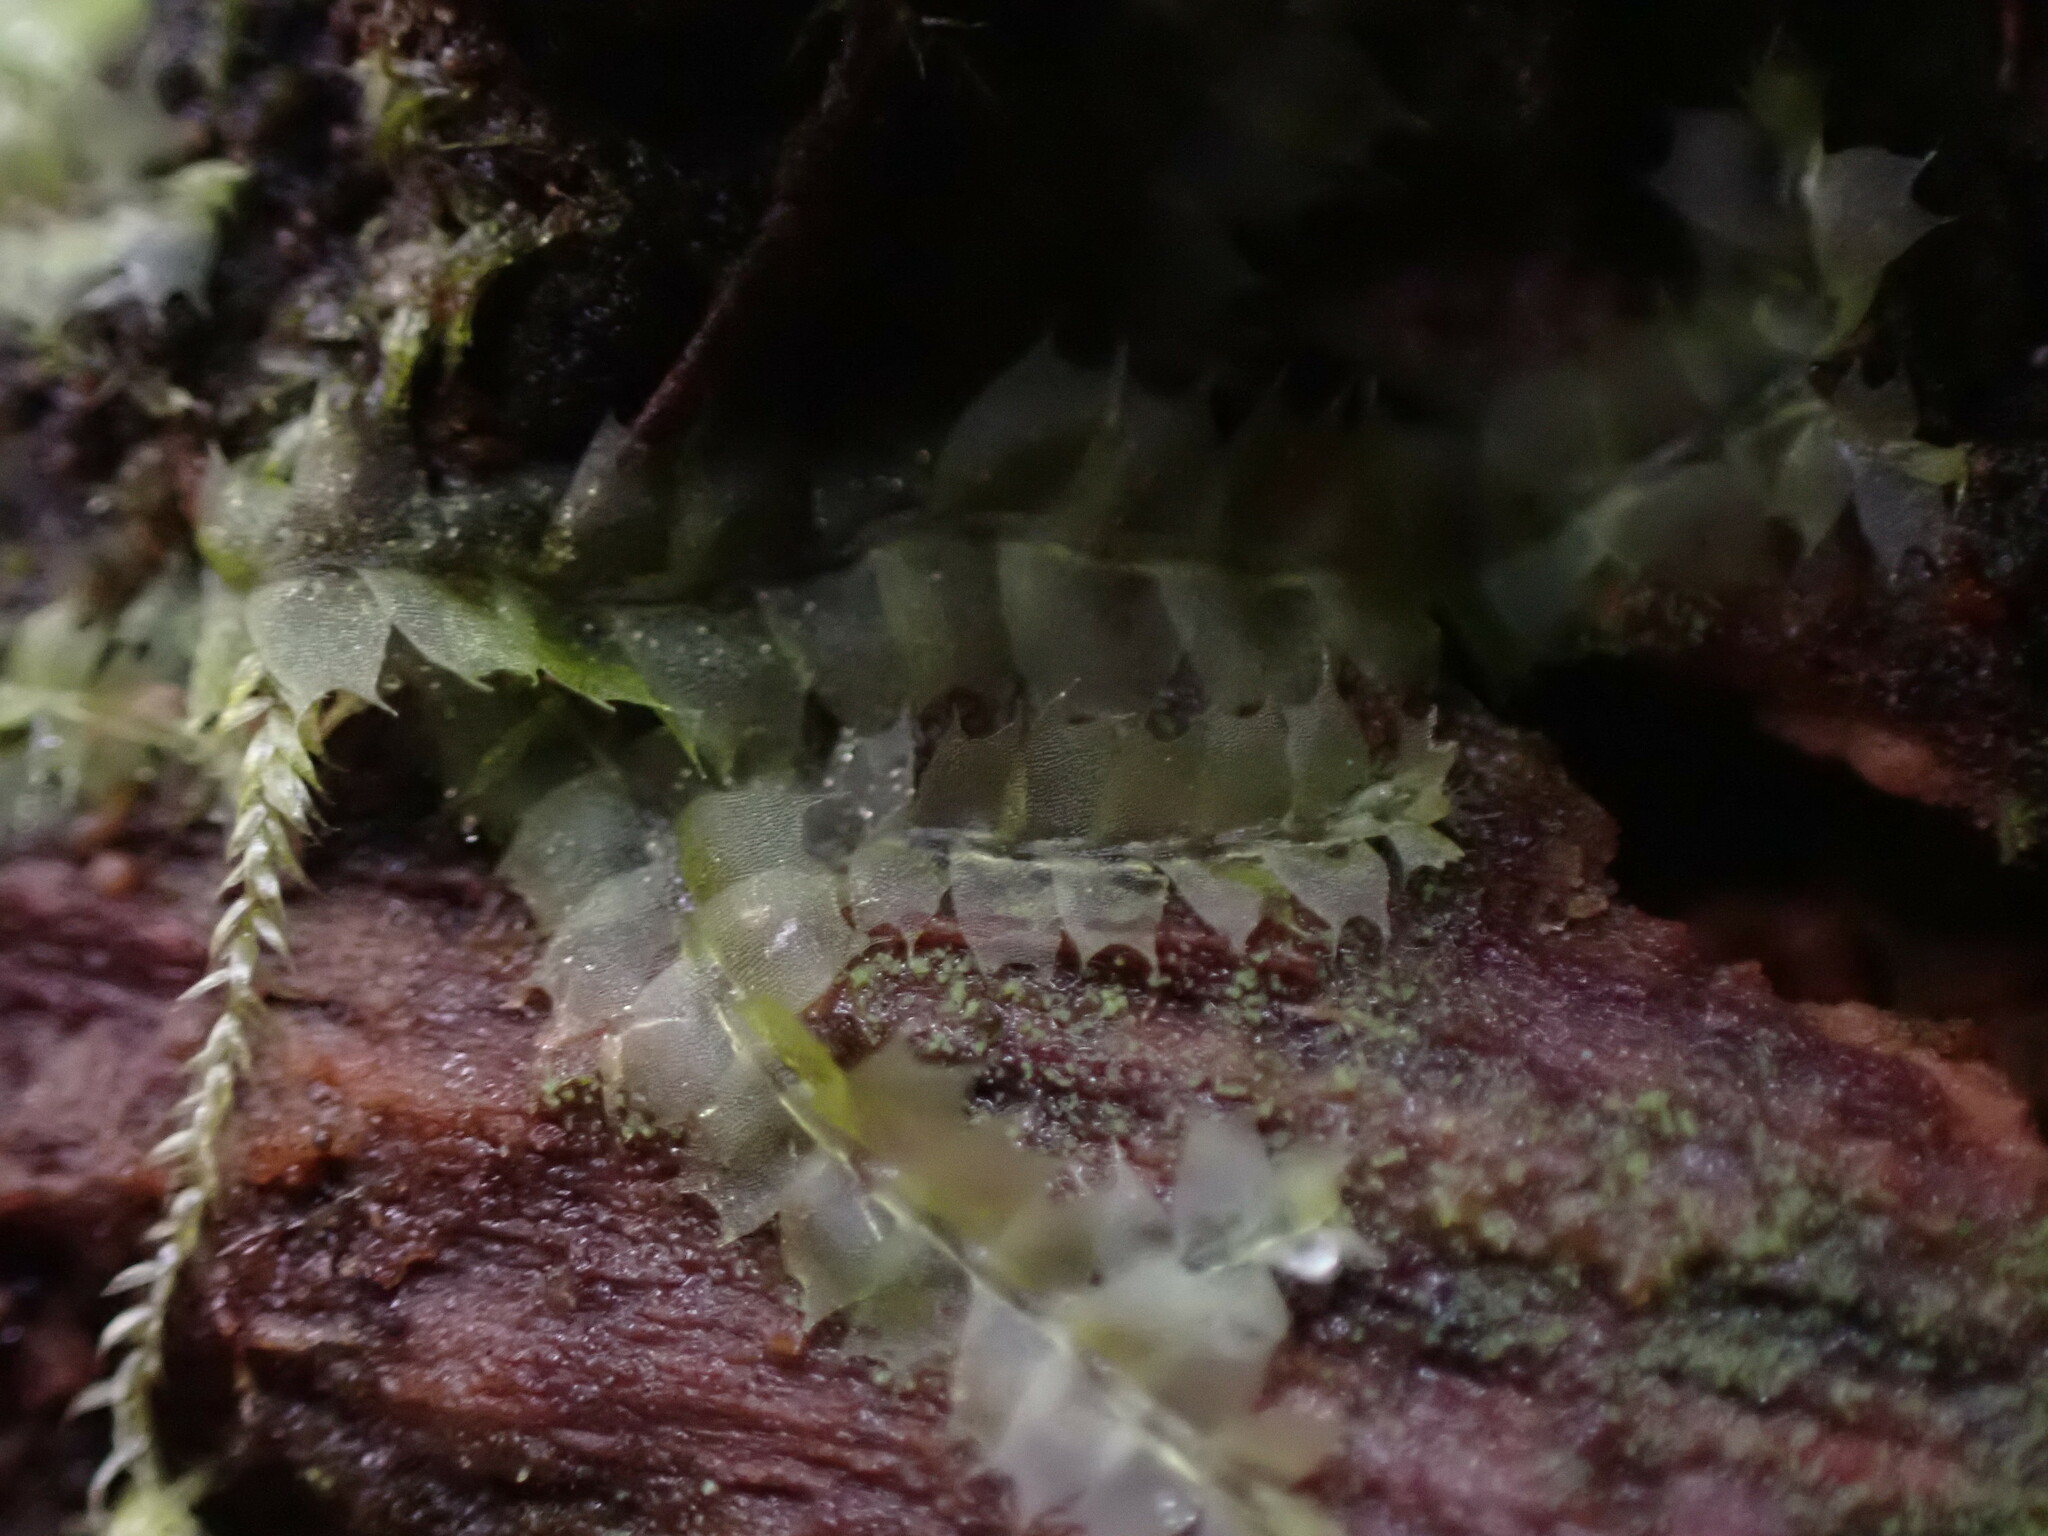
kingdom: Plantae
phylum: Marchantiophyta
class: Jungermanniopsida
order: Jungermanniales
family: Lophocoleaceae
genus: Lophocolea
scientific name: Lophocolea bidentata
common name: Bifid crestwort
